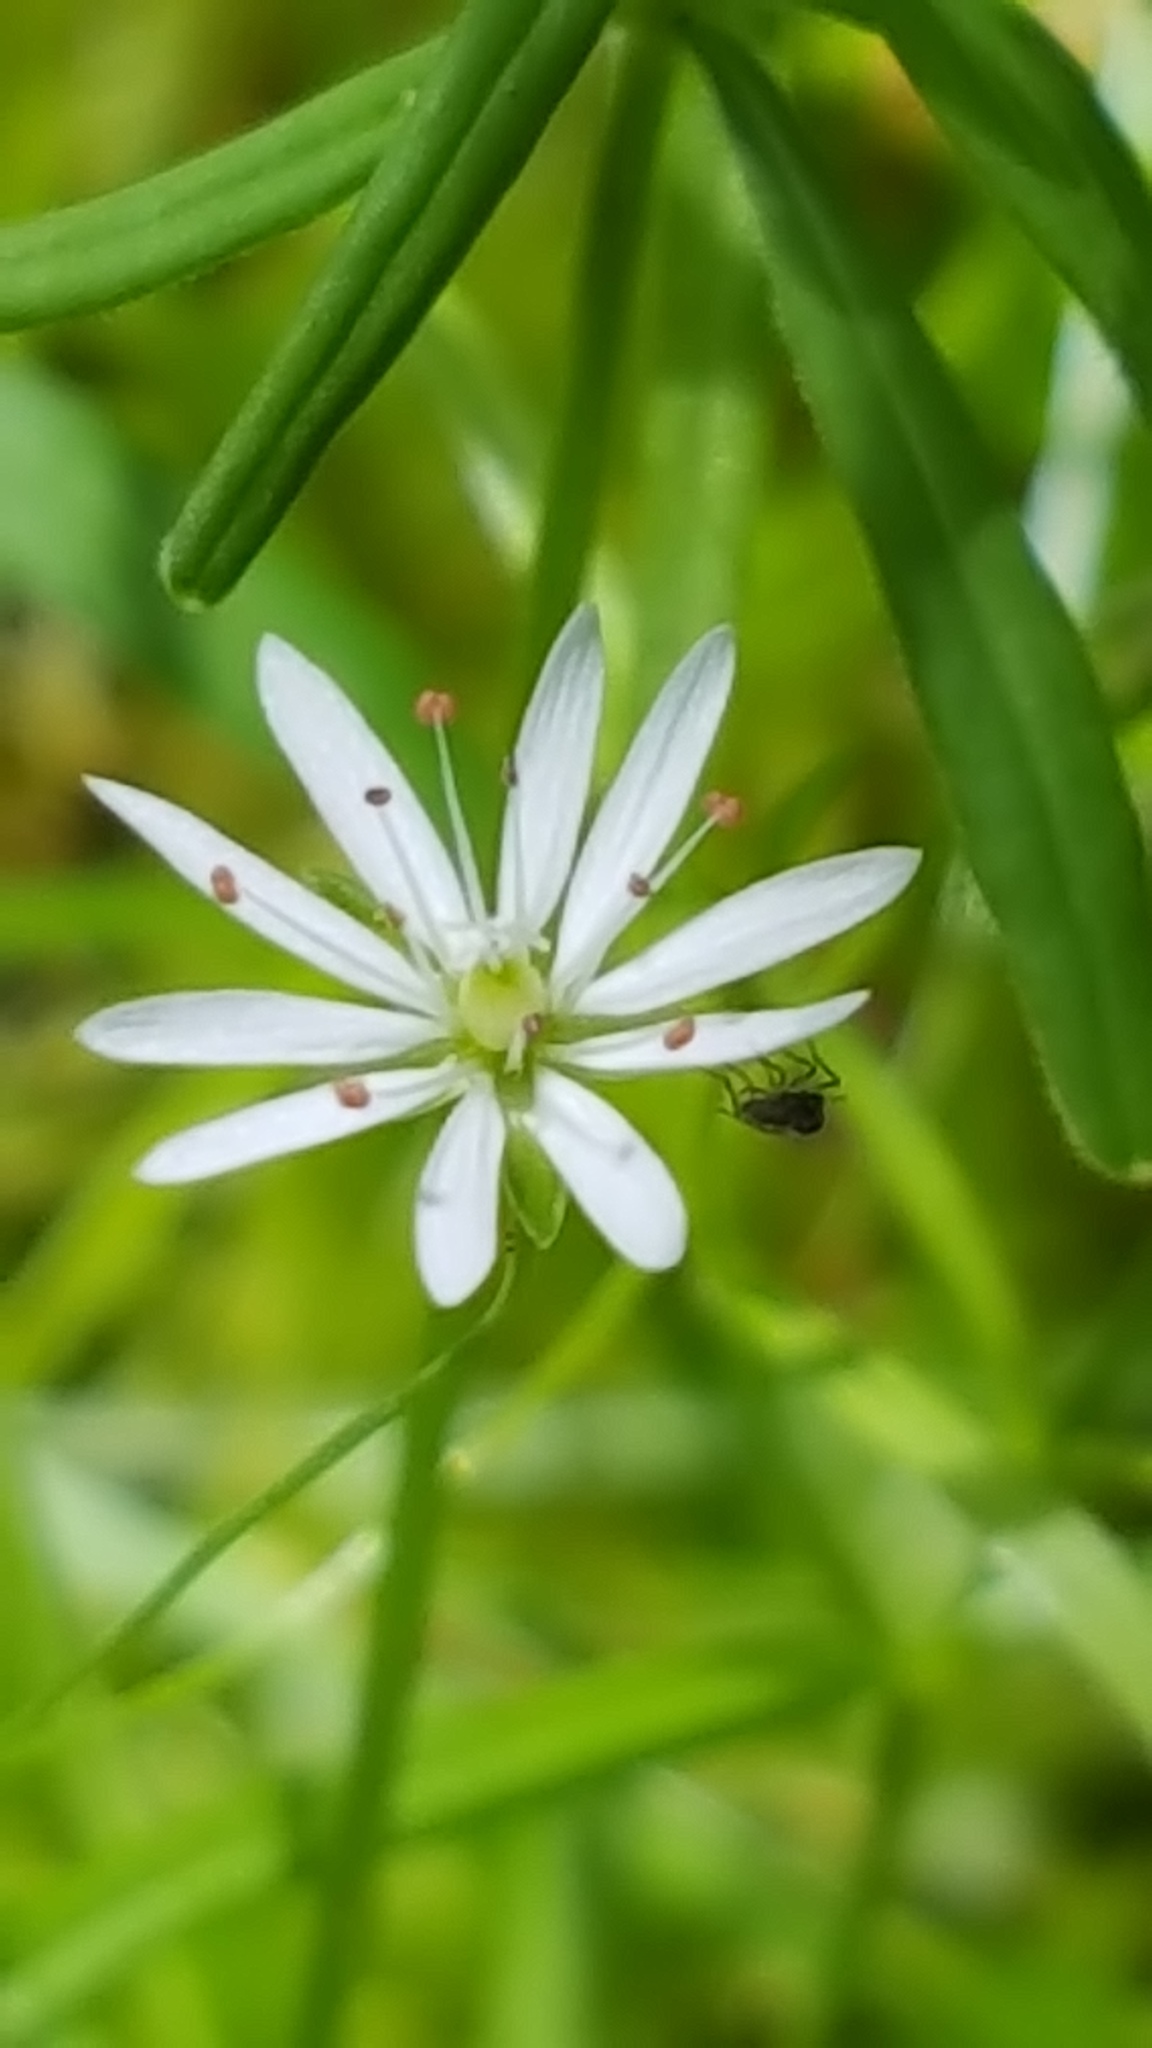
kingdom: Plantae
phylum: Tracheophyta
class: Magnoliopsida
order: Caryophyllales
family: Caryophyllaceae
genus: Stellaria
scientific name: Stellaria graminea
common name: Grass-like starwort
